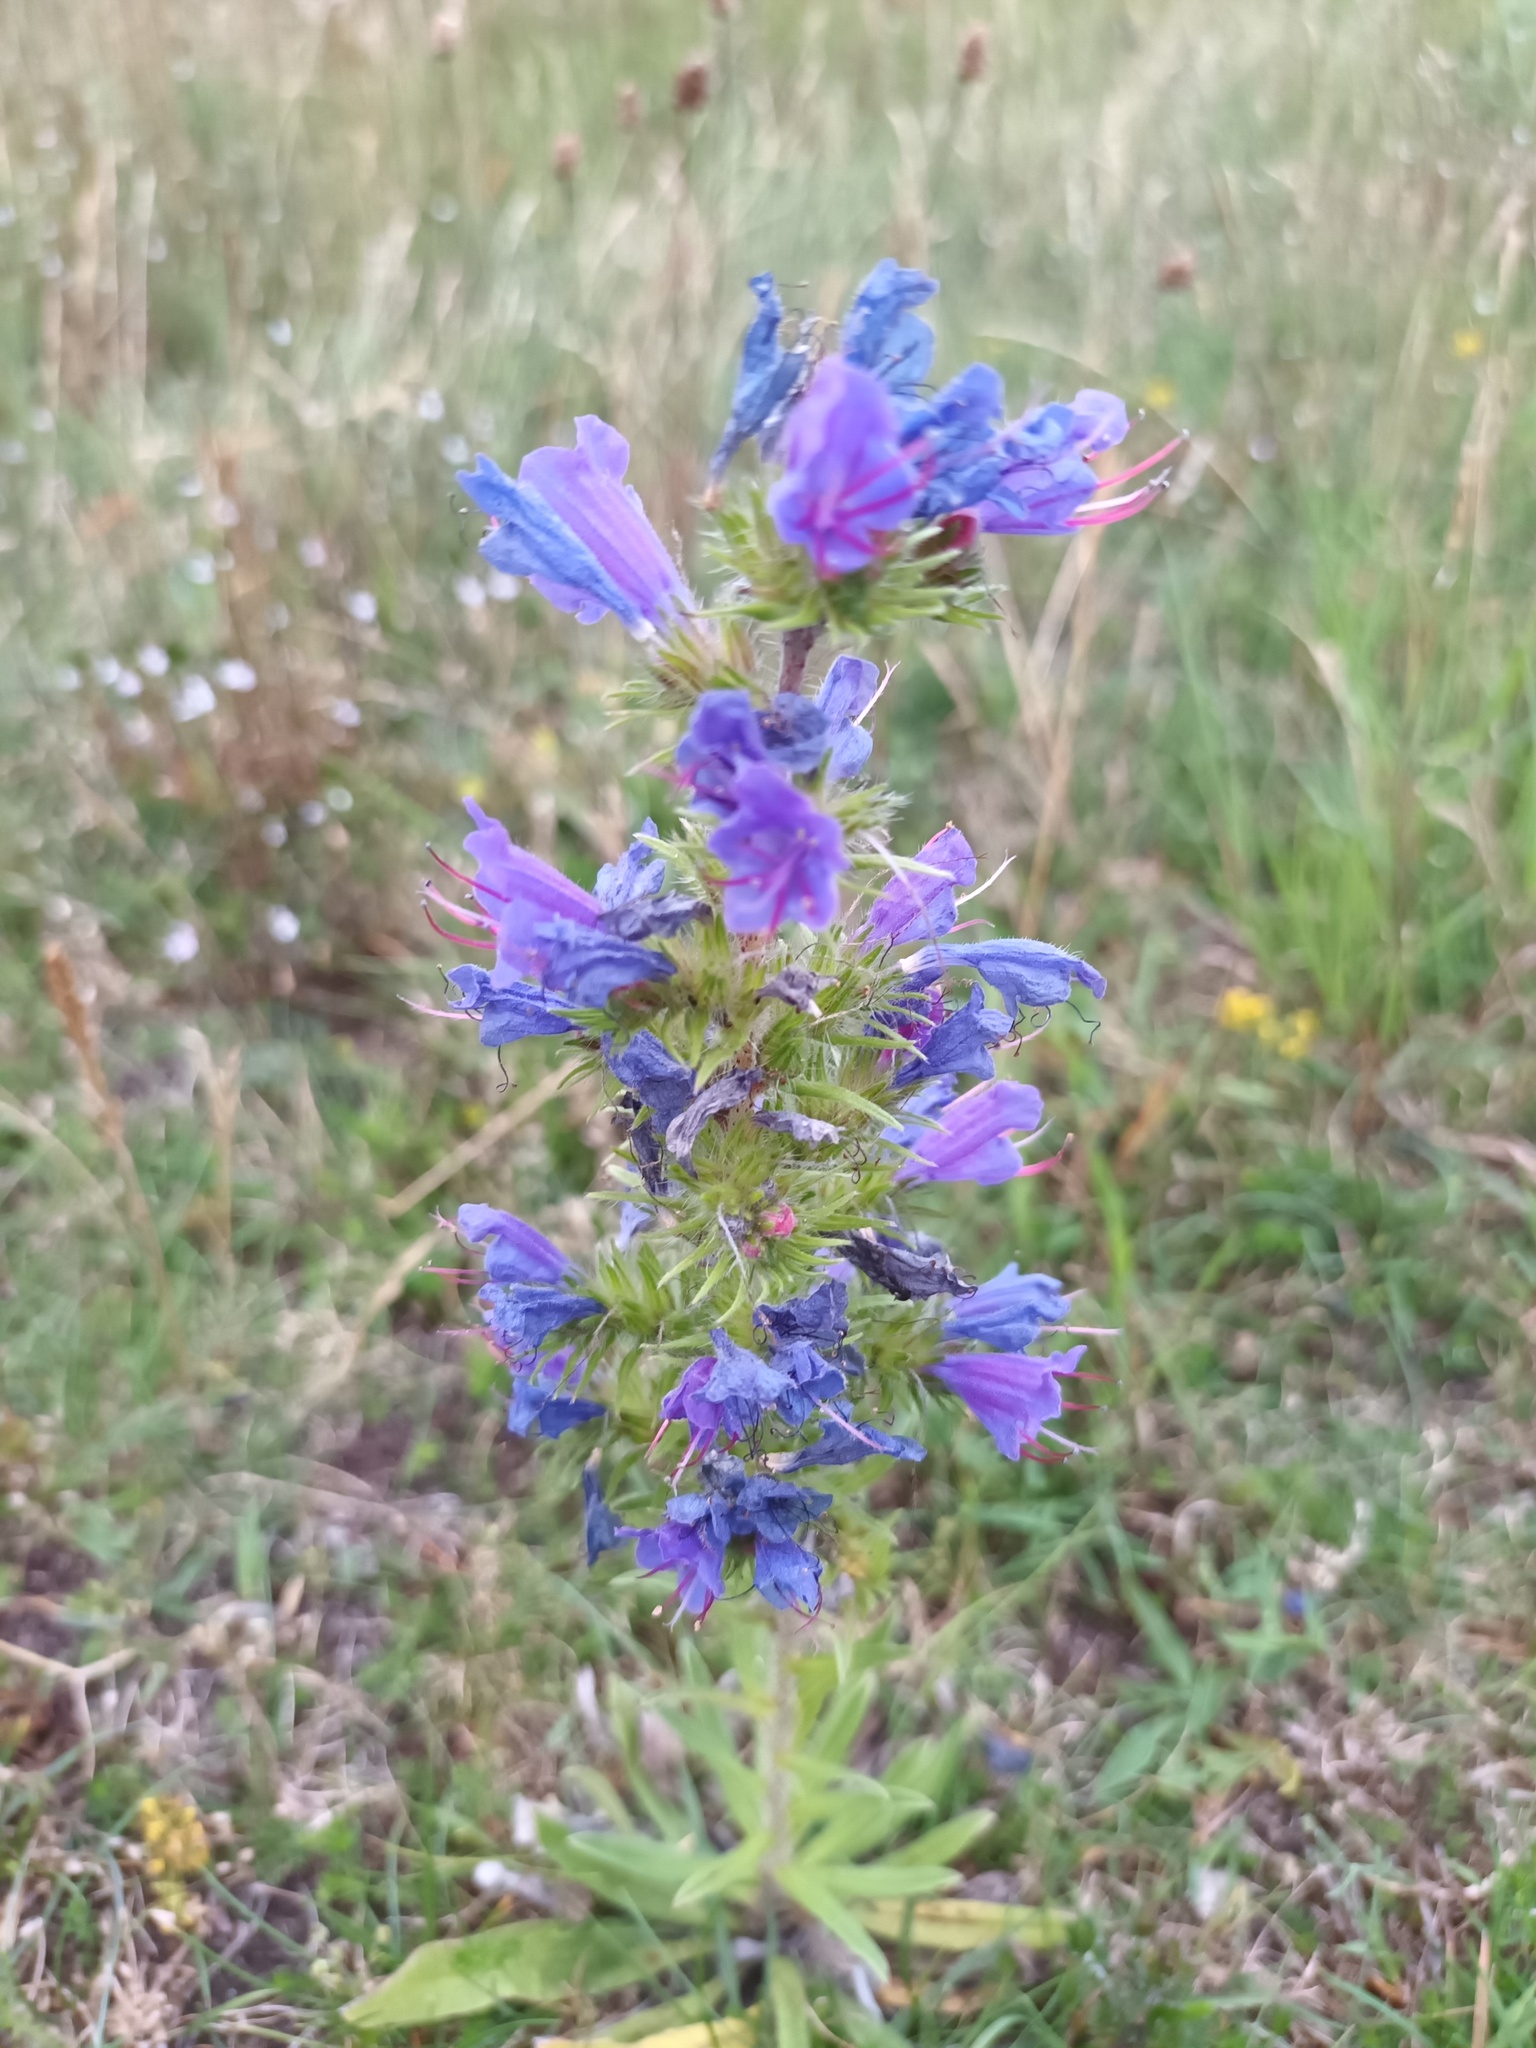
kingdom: Plantae
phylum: Tracheophyta
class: Magnoliopsida
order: Boraginales
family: Boraginaceae
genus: Echium
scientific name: Echium vulgare
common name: Common viper's bugloss
